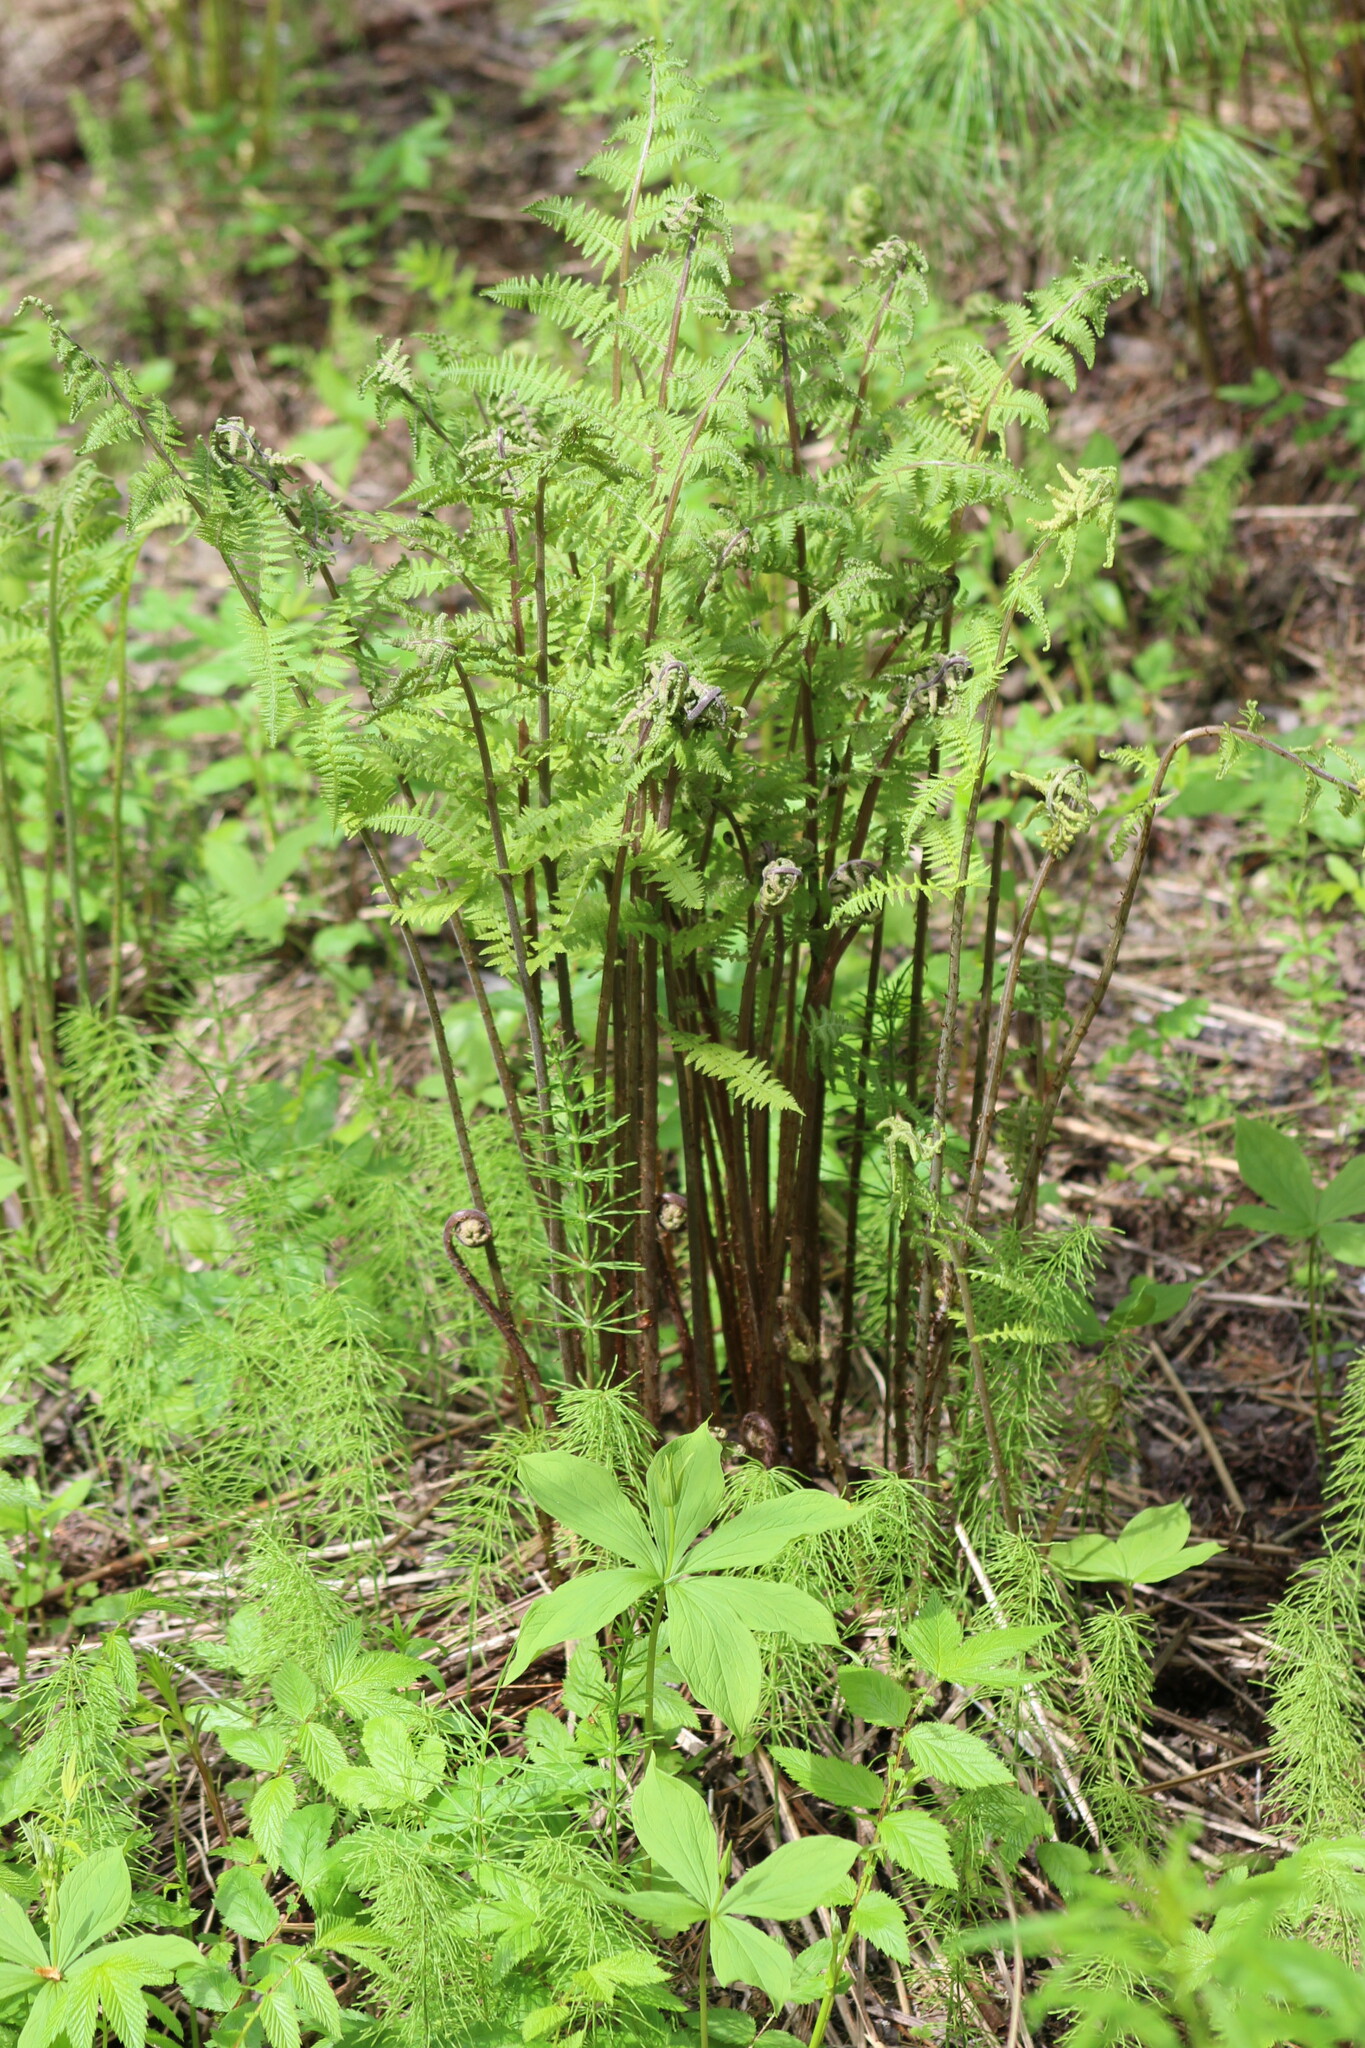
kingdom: Plantae
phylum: Tracheophyta
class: Polypodiopsida
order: Polypodiales
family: Athyriaceae
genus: Athyrium
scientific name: Athyrium filix-femina
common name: Lady fern
